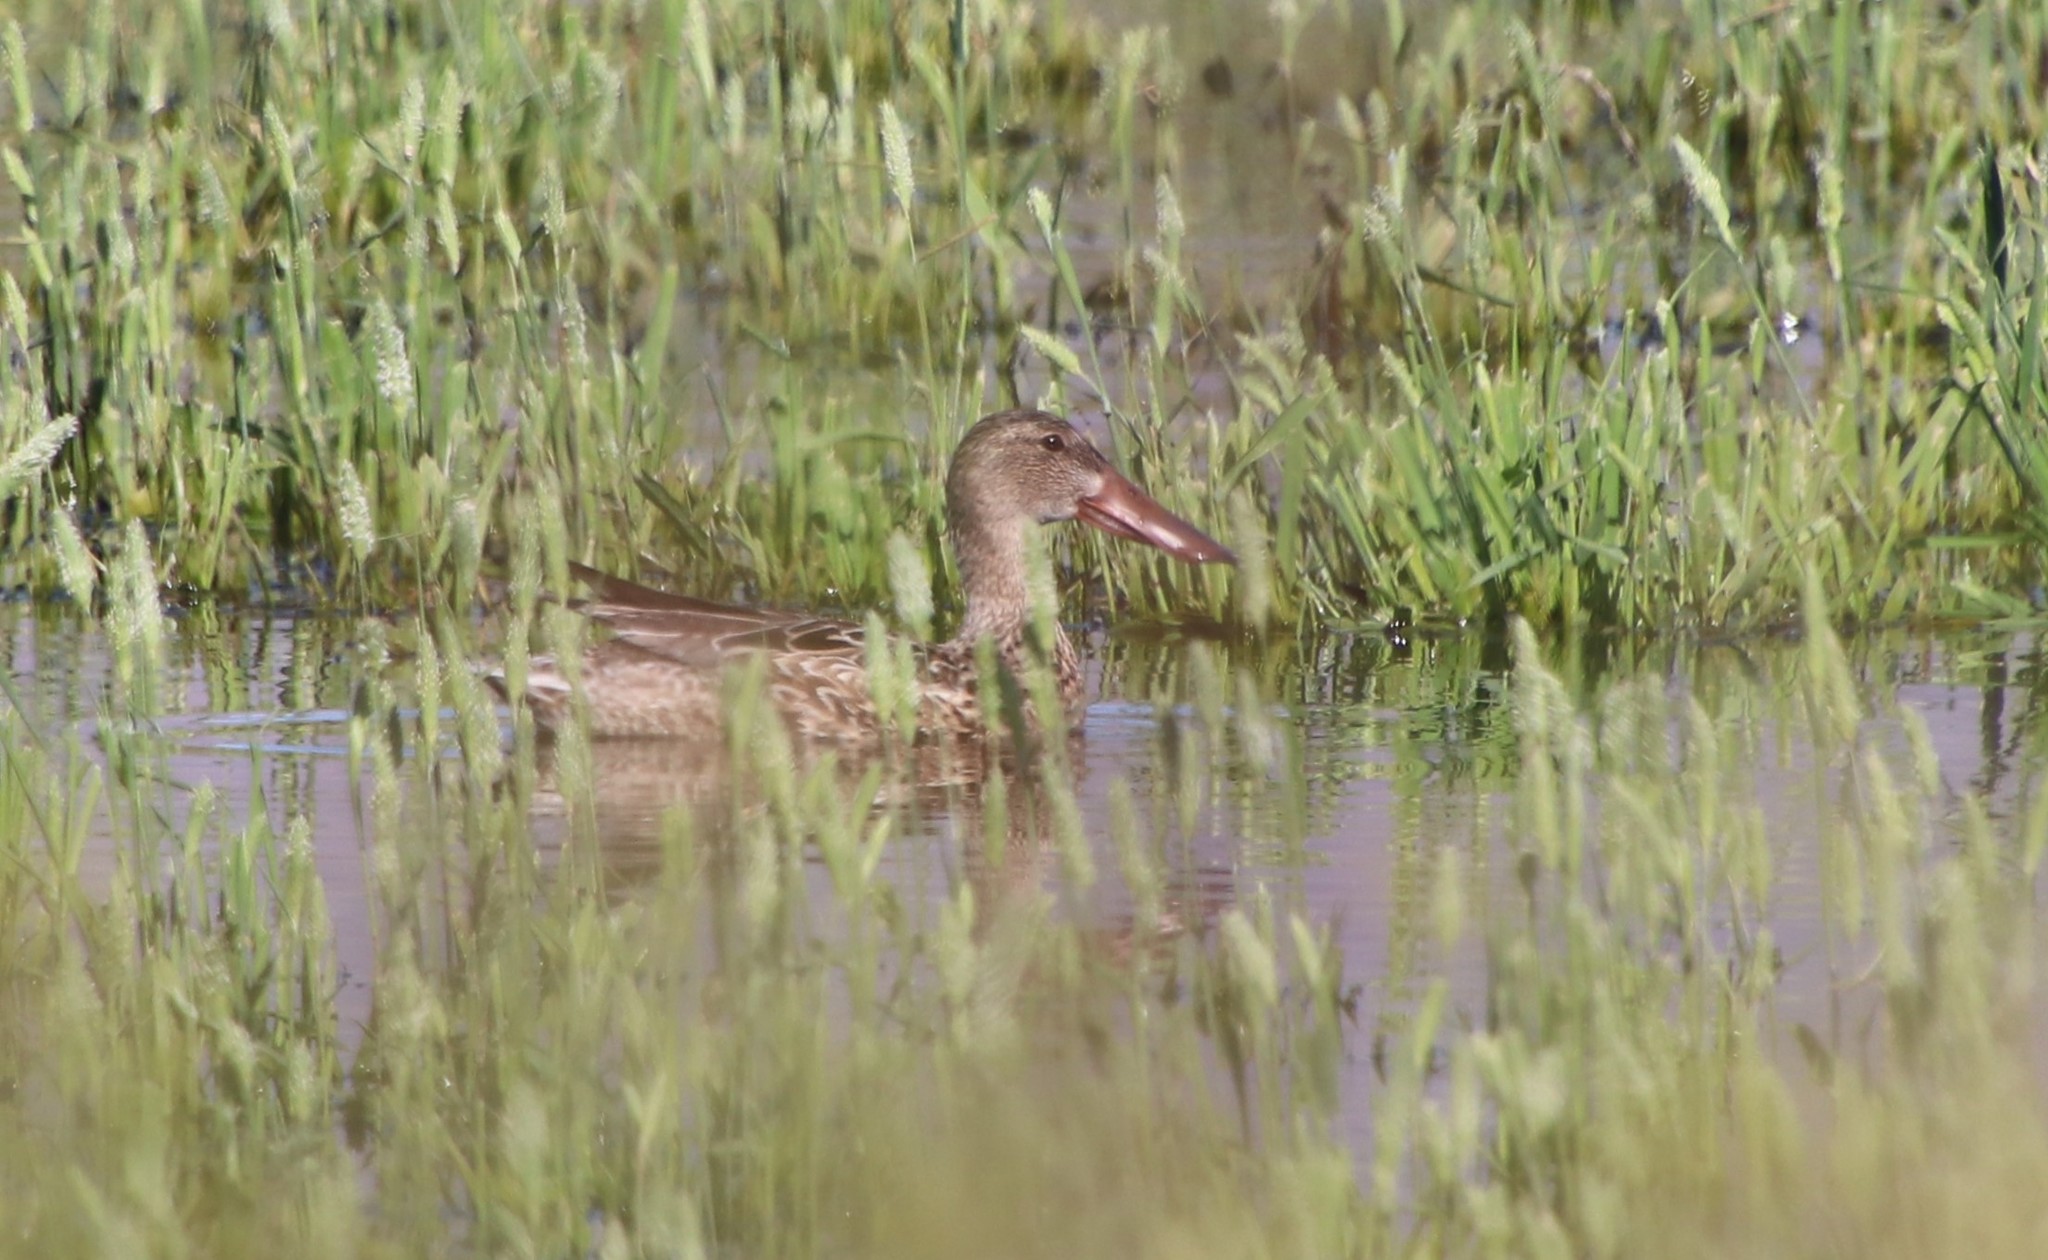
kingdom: Animalia
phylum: Chordata
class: Aves
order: Anseriformes
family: Anatidae
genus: Spatula
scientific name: Spatula clypeata
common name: Northern shoveler
